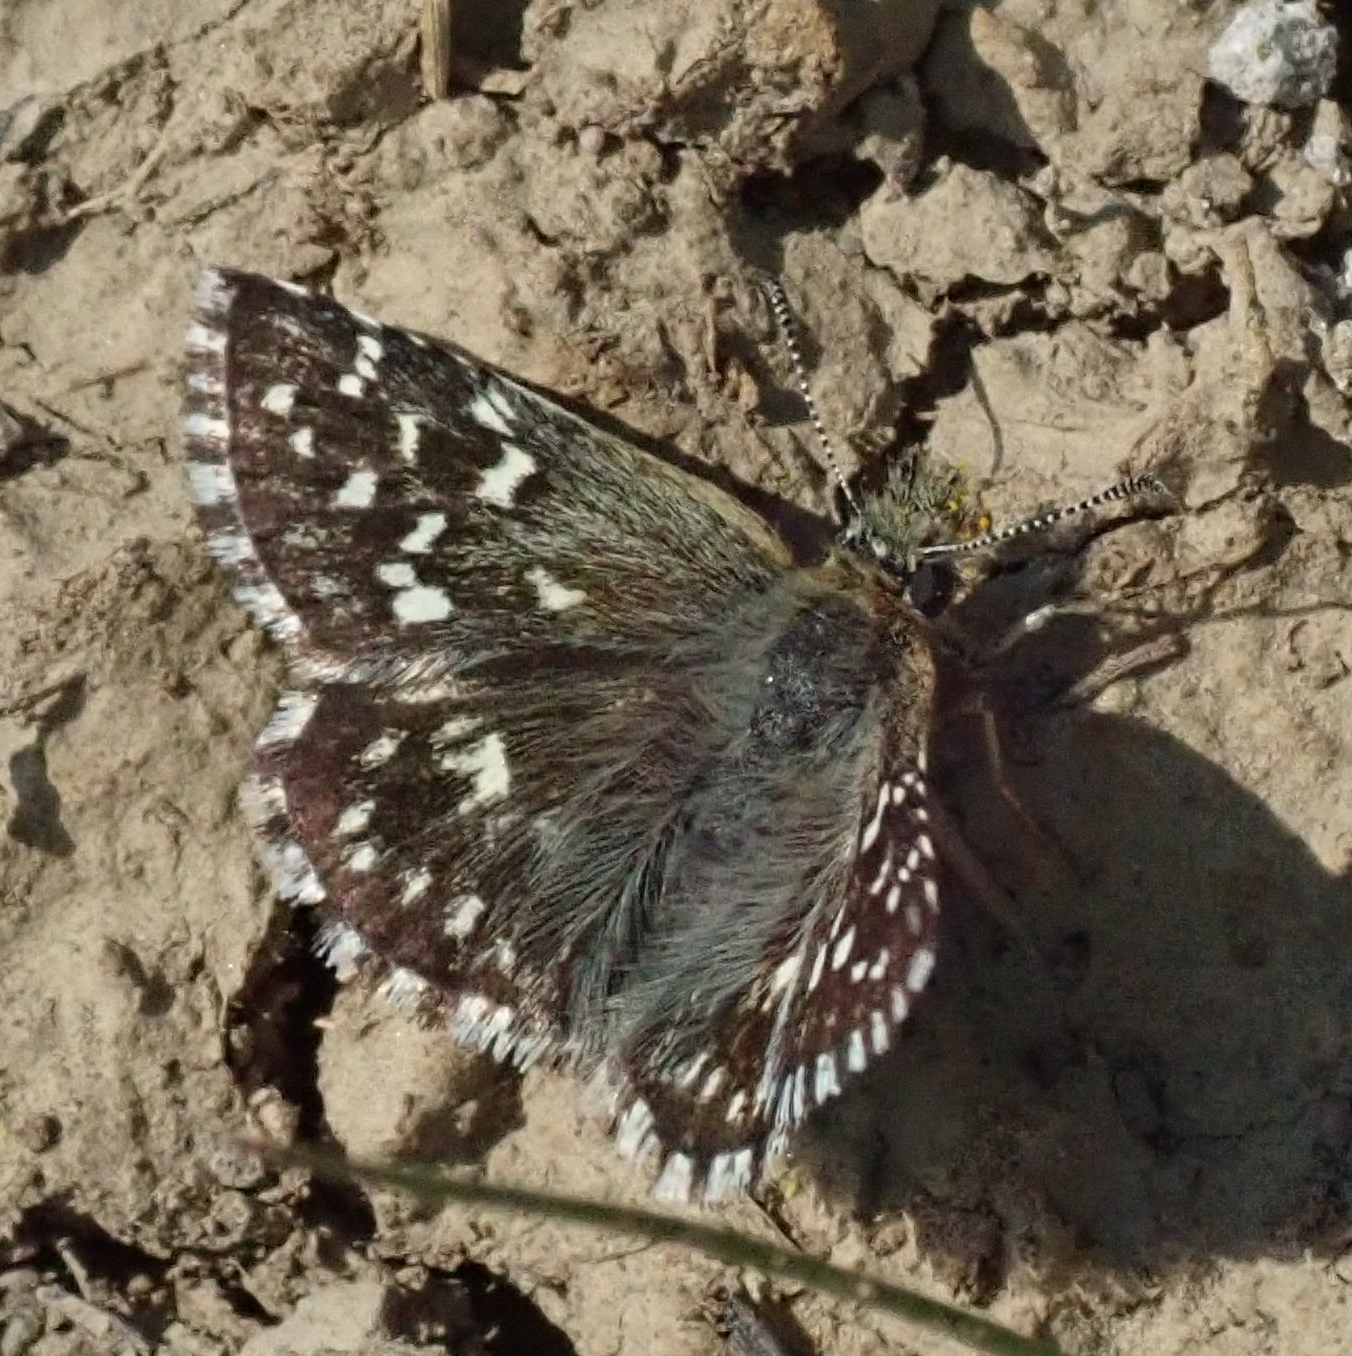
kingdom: Animalia
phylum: Arthropoda
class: Insecta
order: Lepidoptera
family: Hesperiidae
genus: Pyrgus
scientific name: Pyrgus malvae
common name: Grizzled skipper
